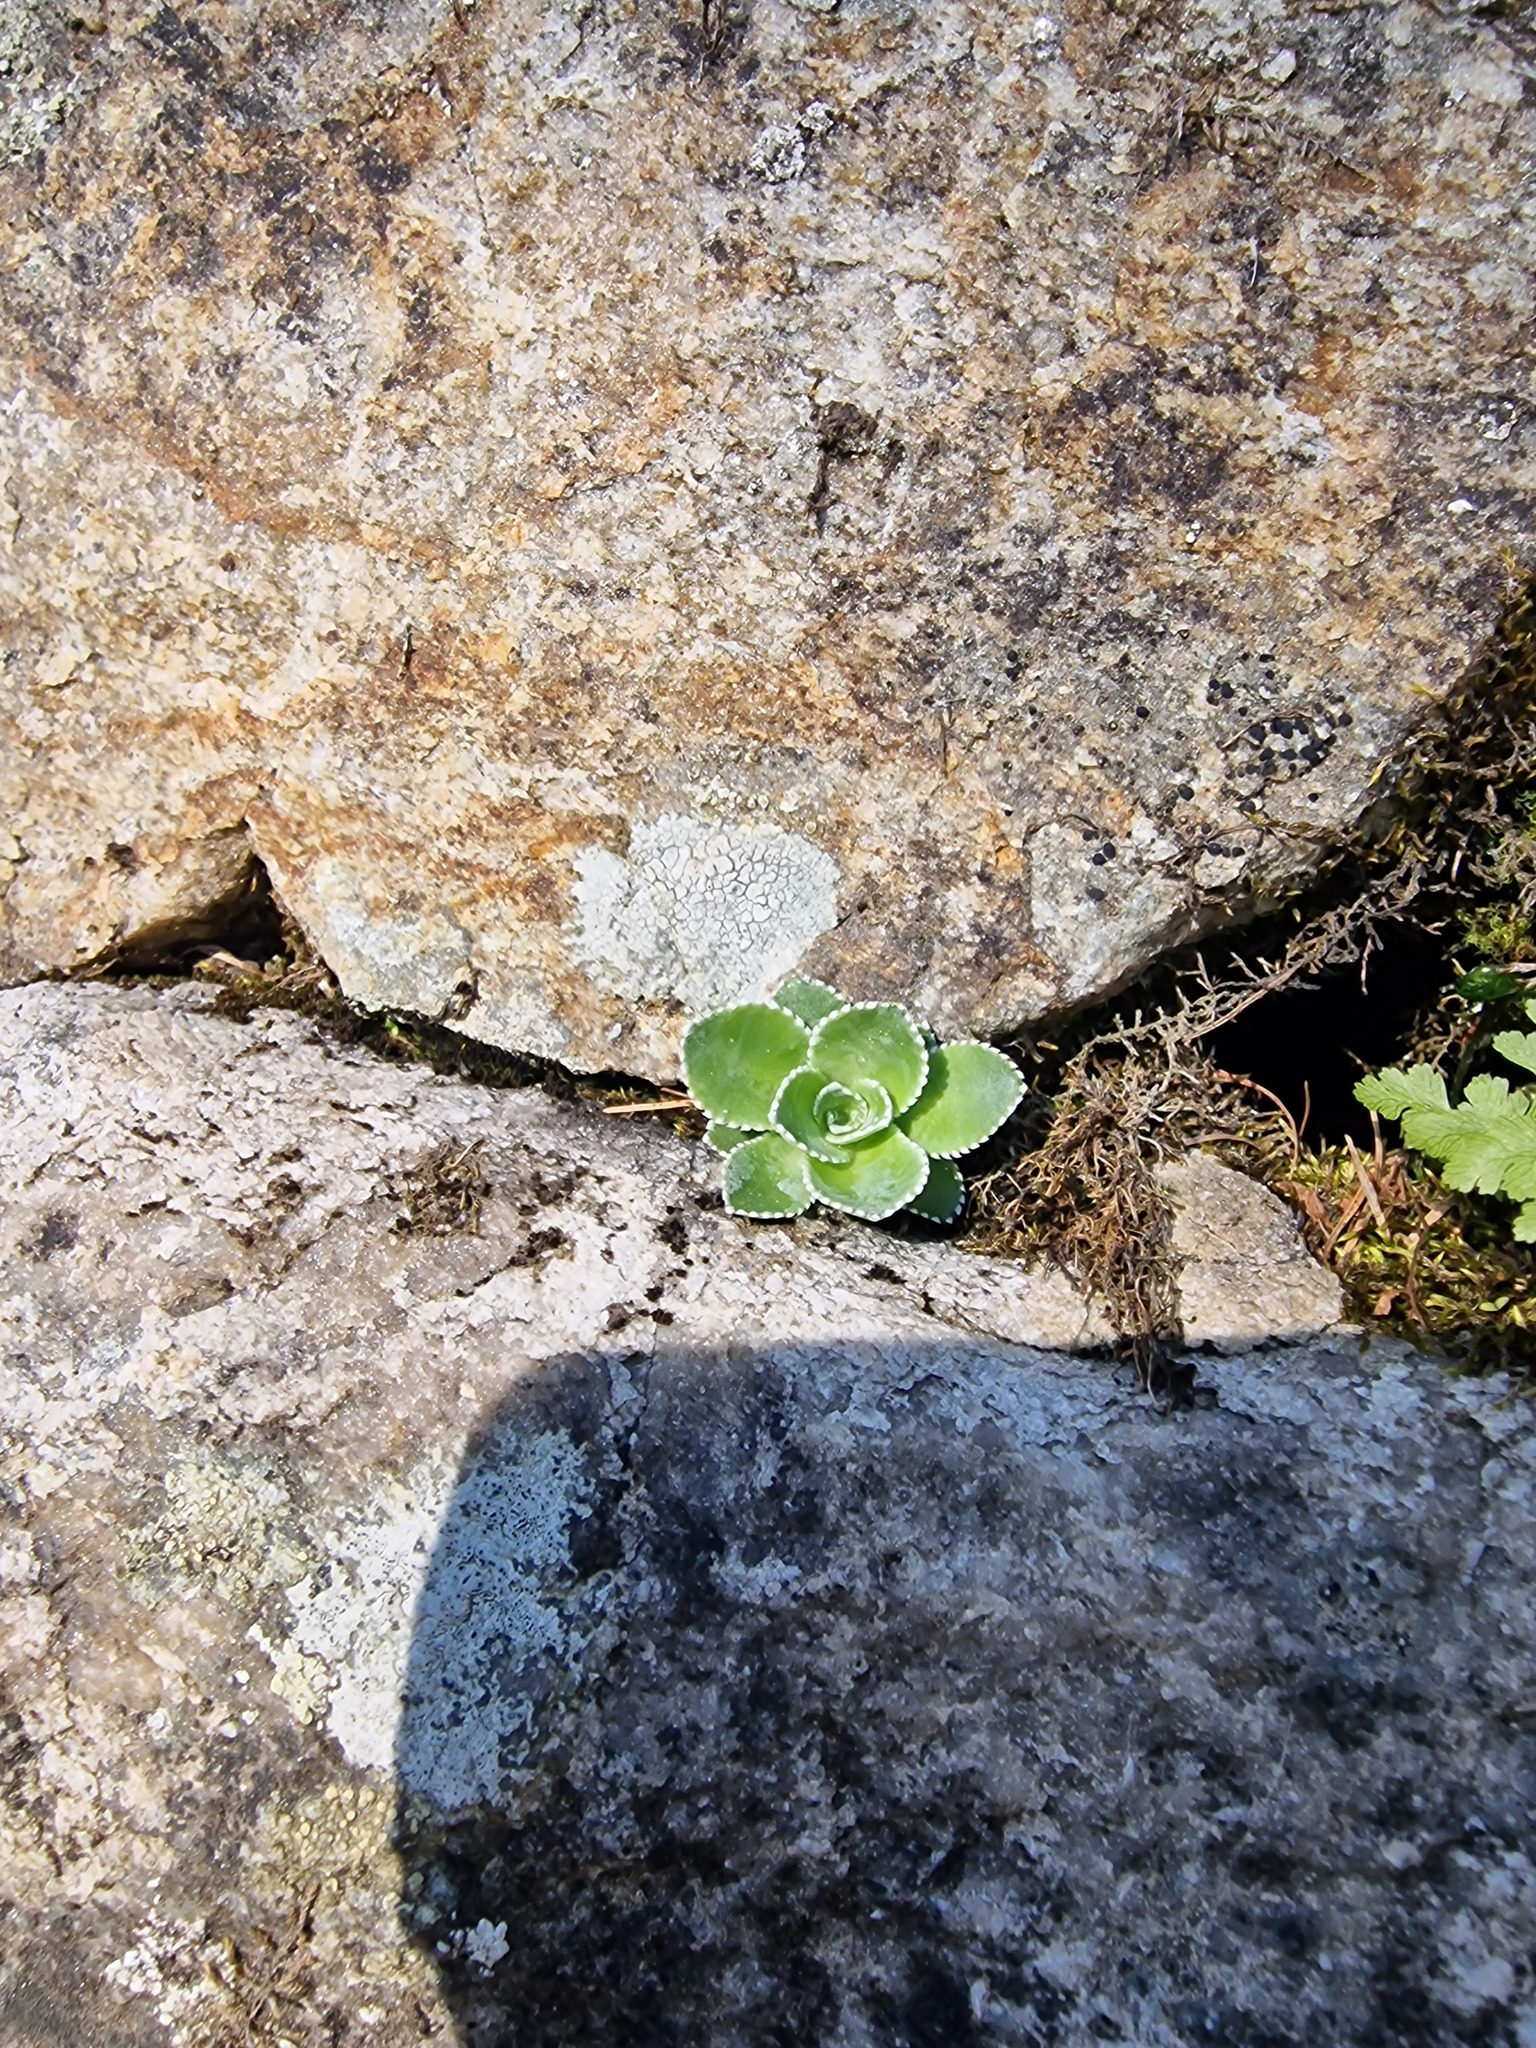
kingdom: Plantae
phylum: Tracheophyta
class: Magnoliopsida
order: Saxifragales
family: Saxifragaceae
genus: Saxifraga
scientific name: Saxifraga cotyledon
